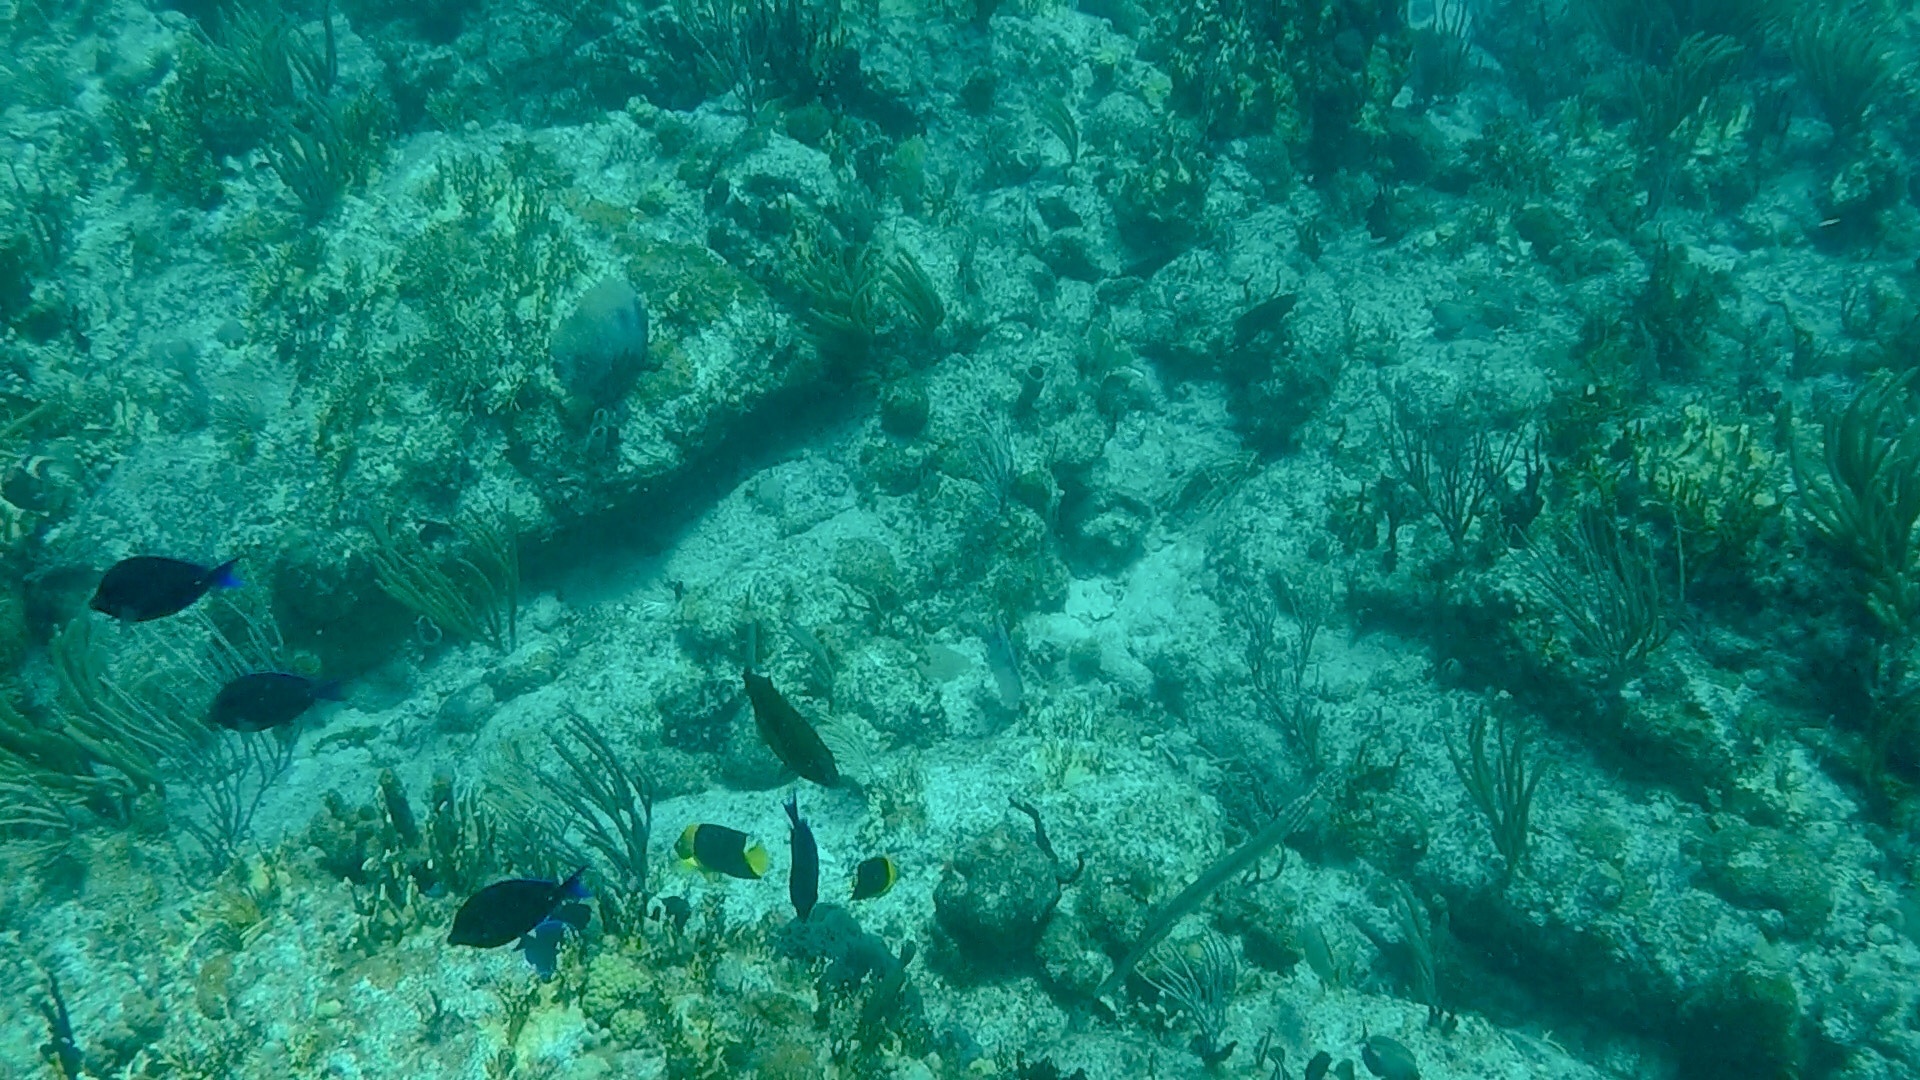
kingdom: Animalia
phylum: Chordata
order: Perciformes
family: Pomacanthidae
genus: Holacanthus
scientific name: Holacanthus tricolor
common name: Rock beauty
